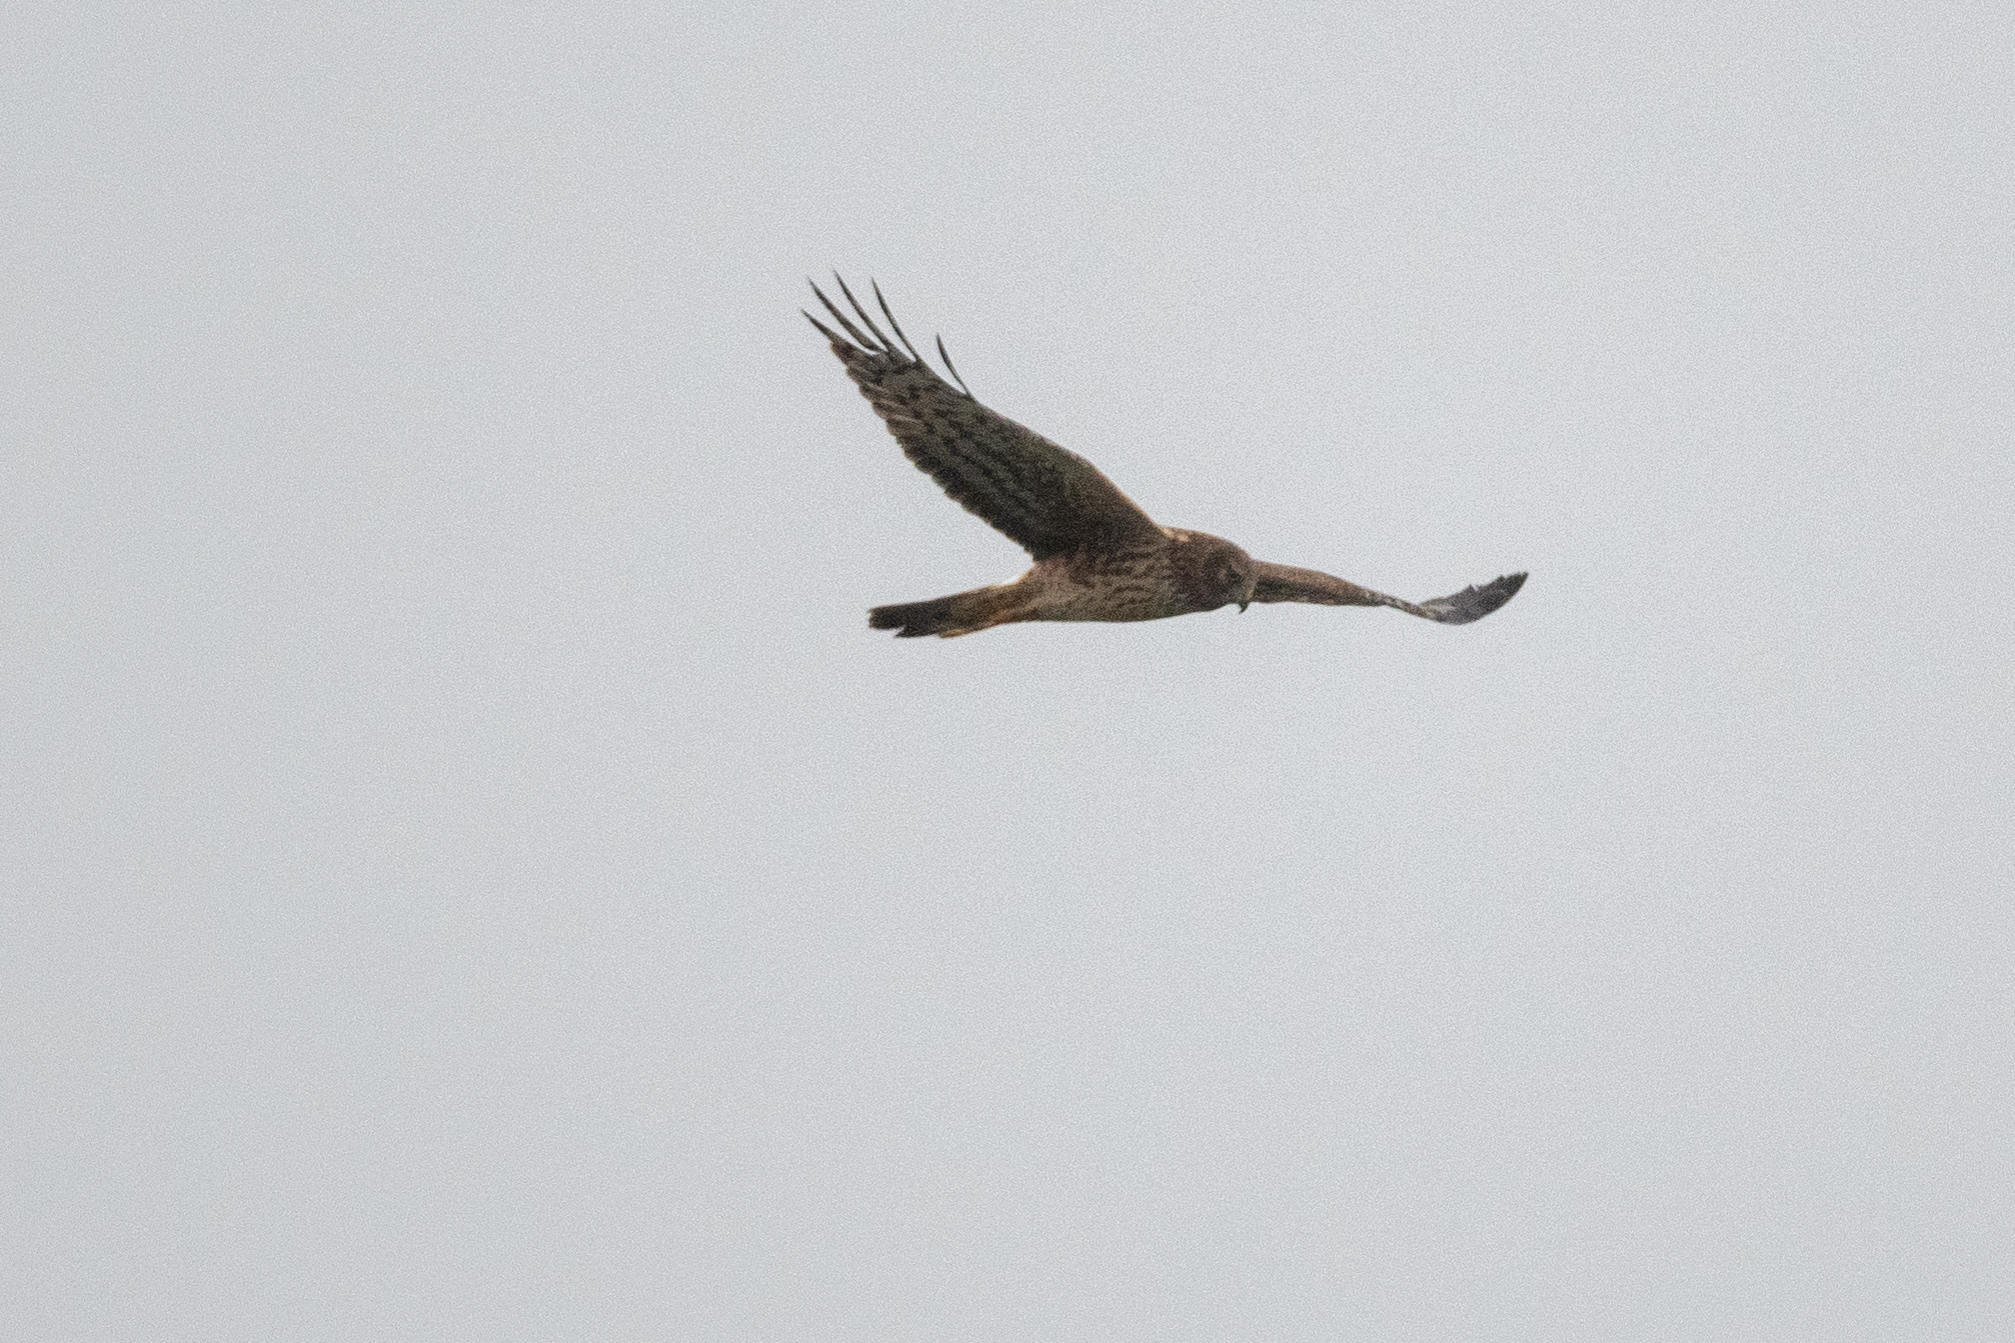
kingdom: Animalia
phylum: Chordata
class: Aves
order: Accipitriformes
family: Accipitridae
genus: Circus
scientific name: Circus cyaneus
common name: Hen harrier
